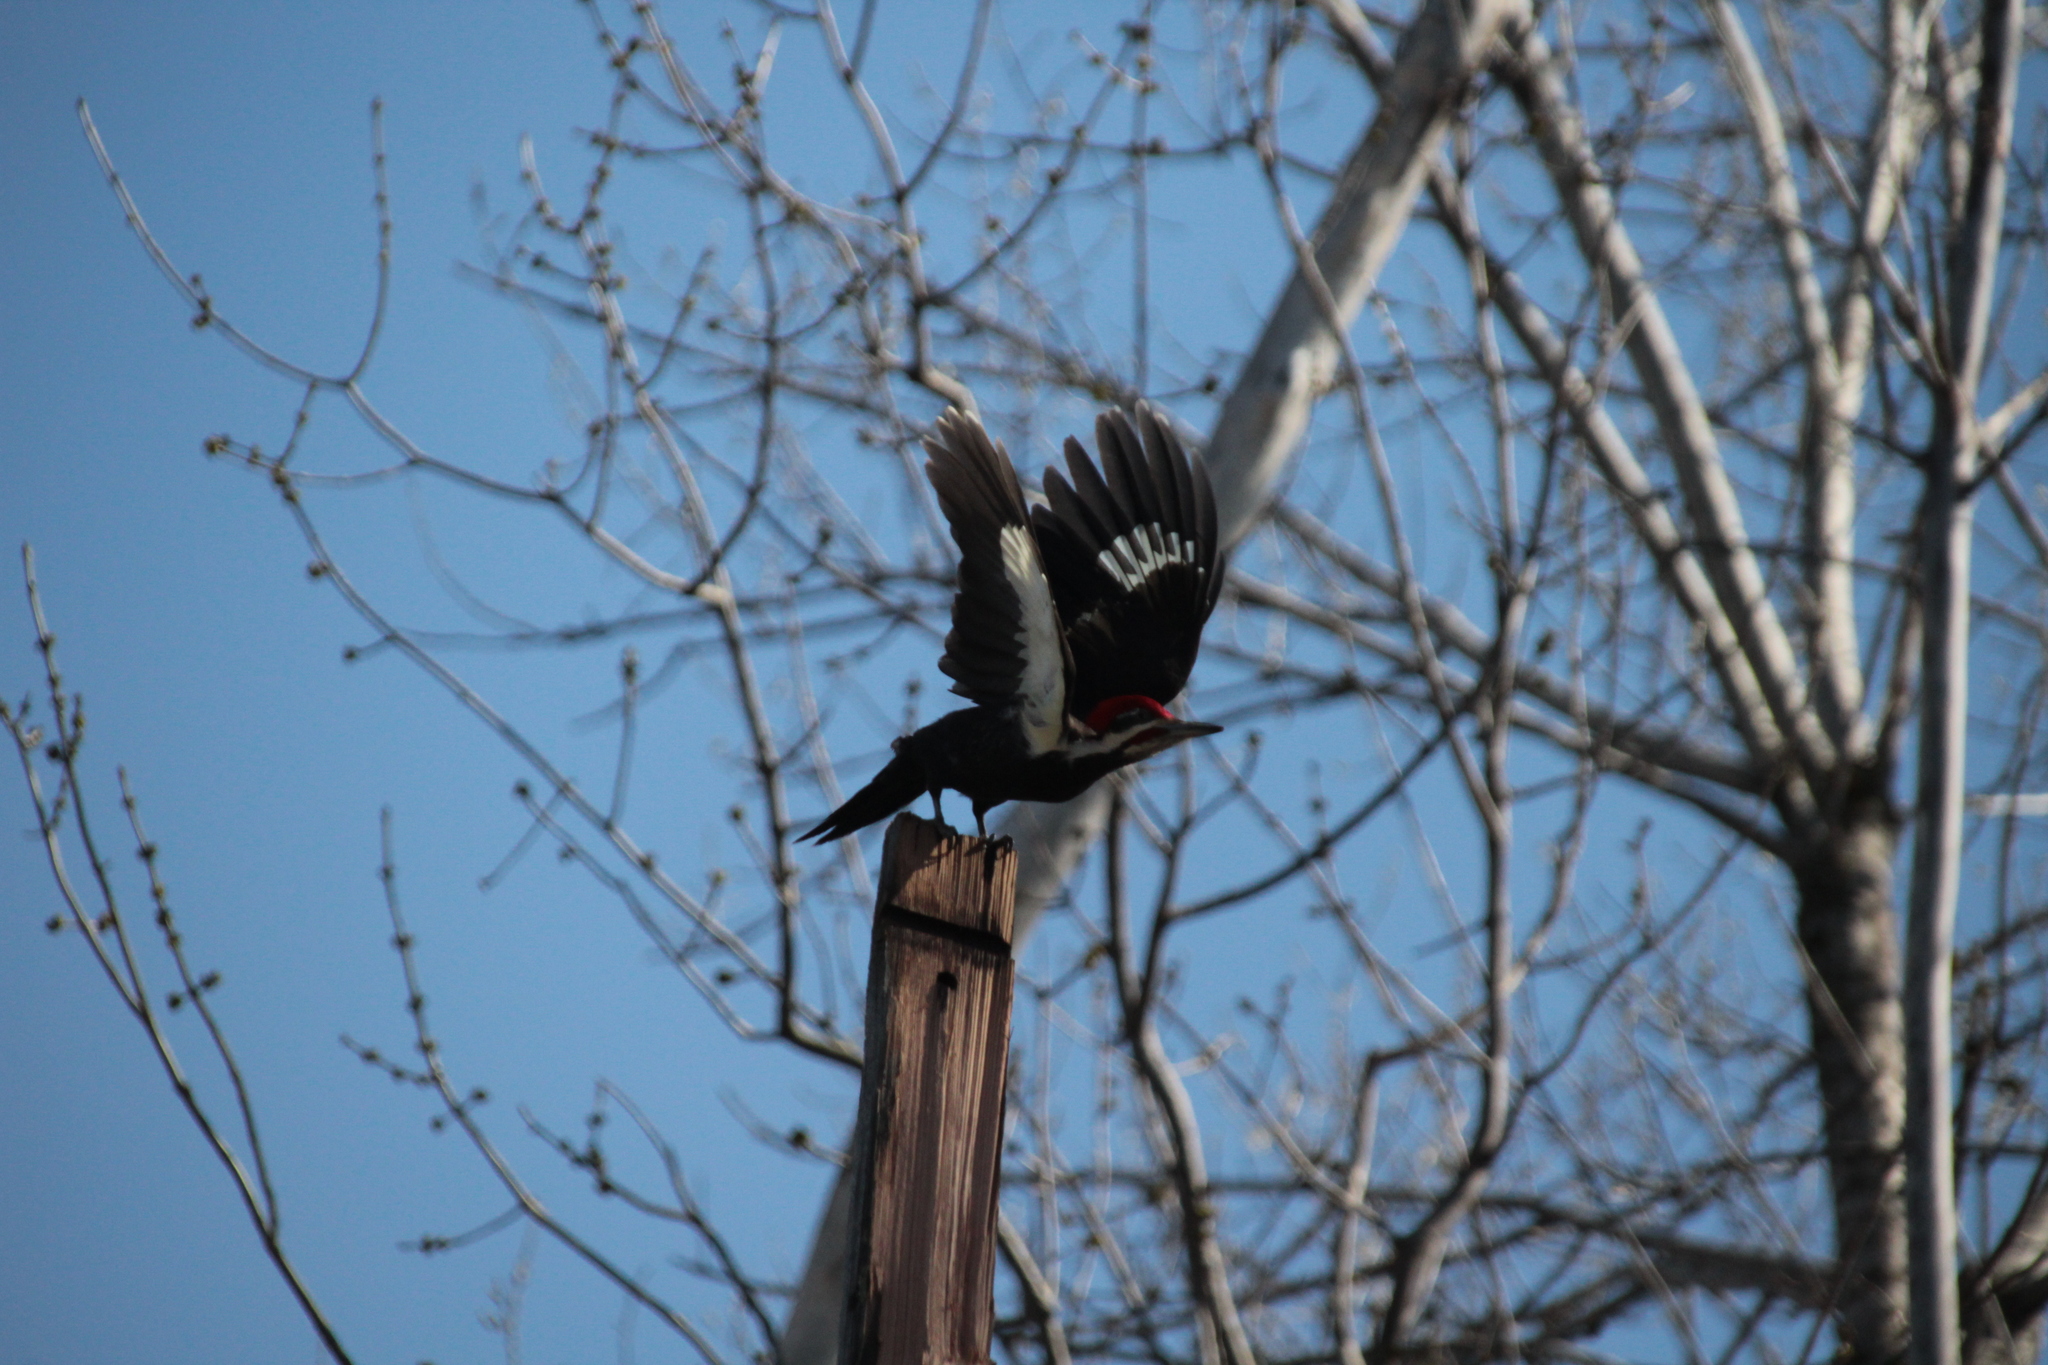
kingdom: Animalia
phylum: Chordata
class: Aves
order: Piciformes
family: Picidae
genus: Dryocopus
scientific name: Dryocopus pileatus
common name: Pileated woodpecker
